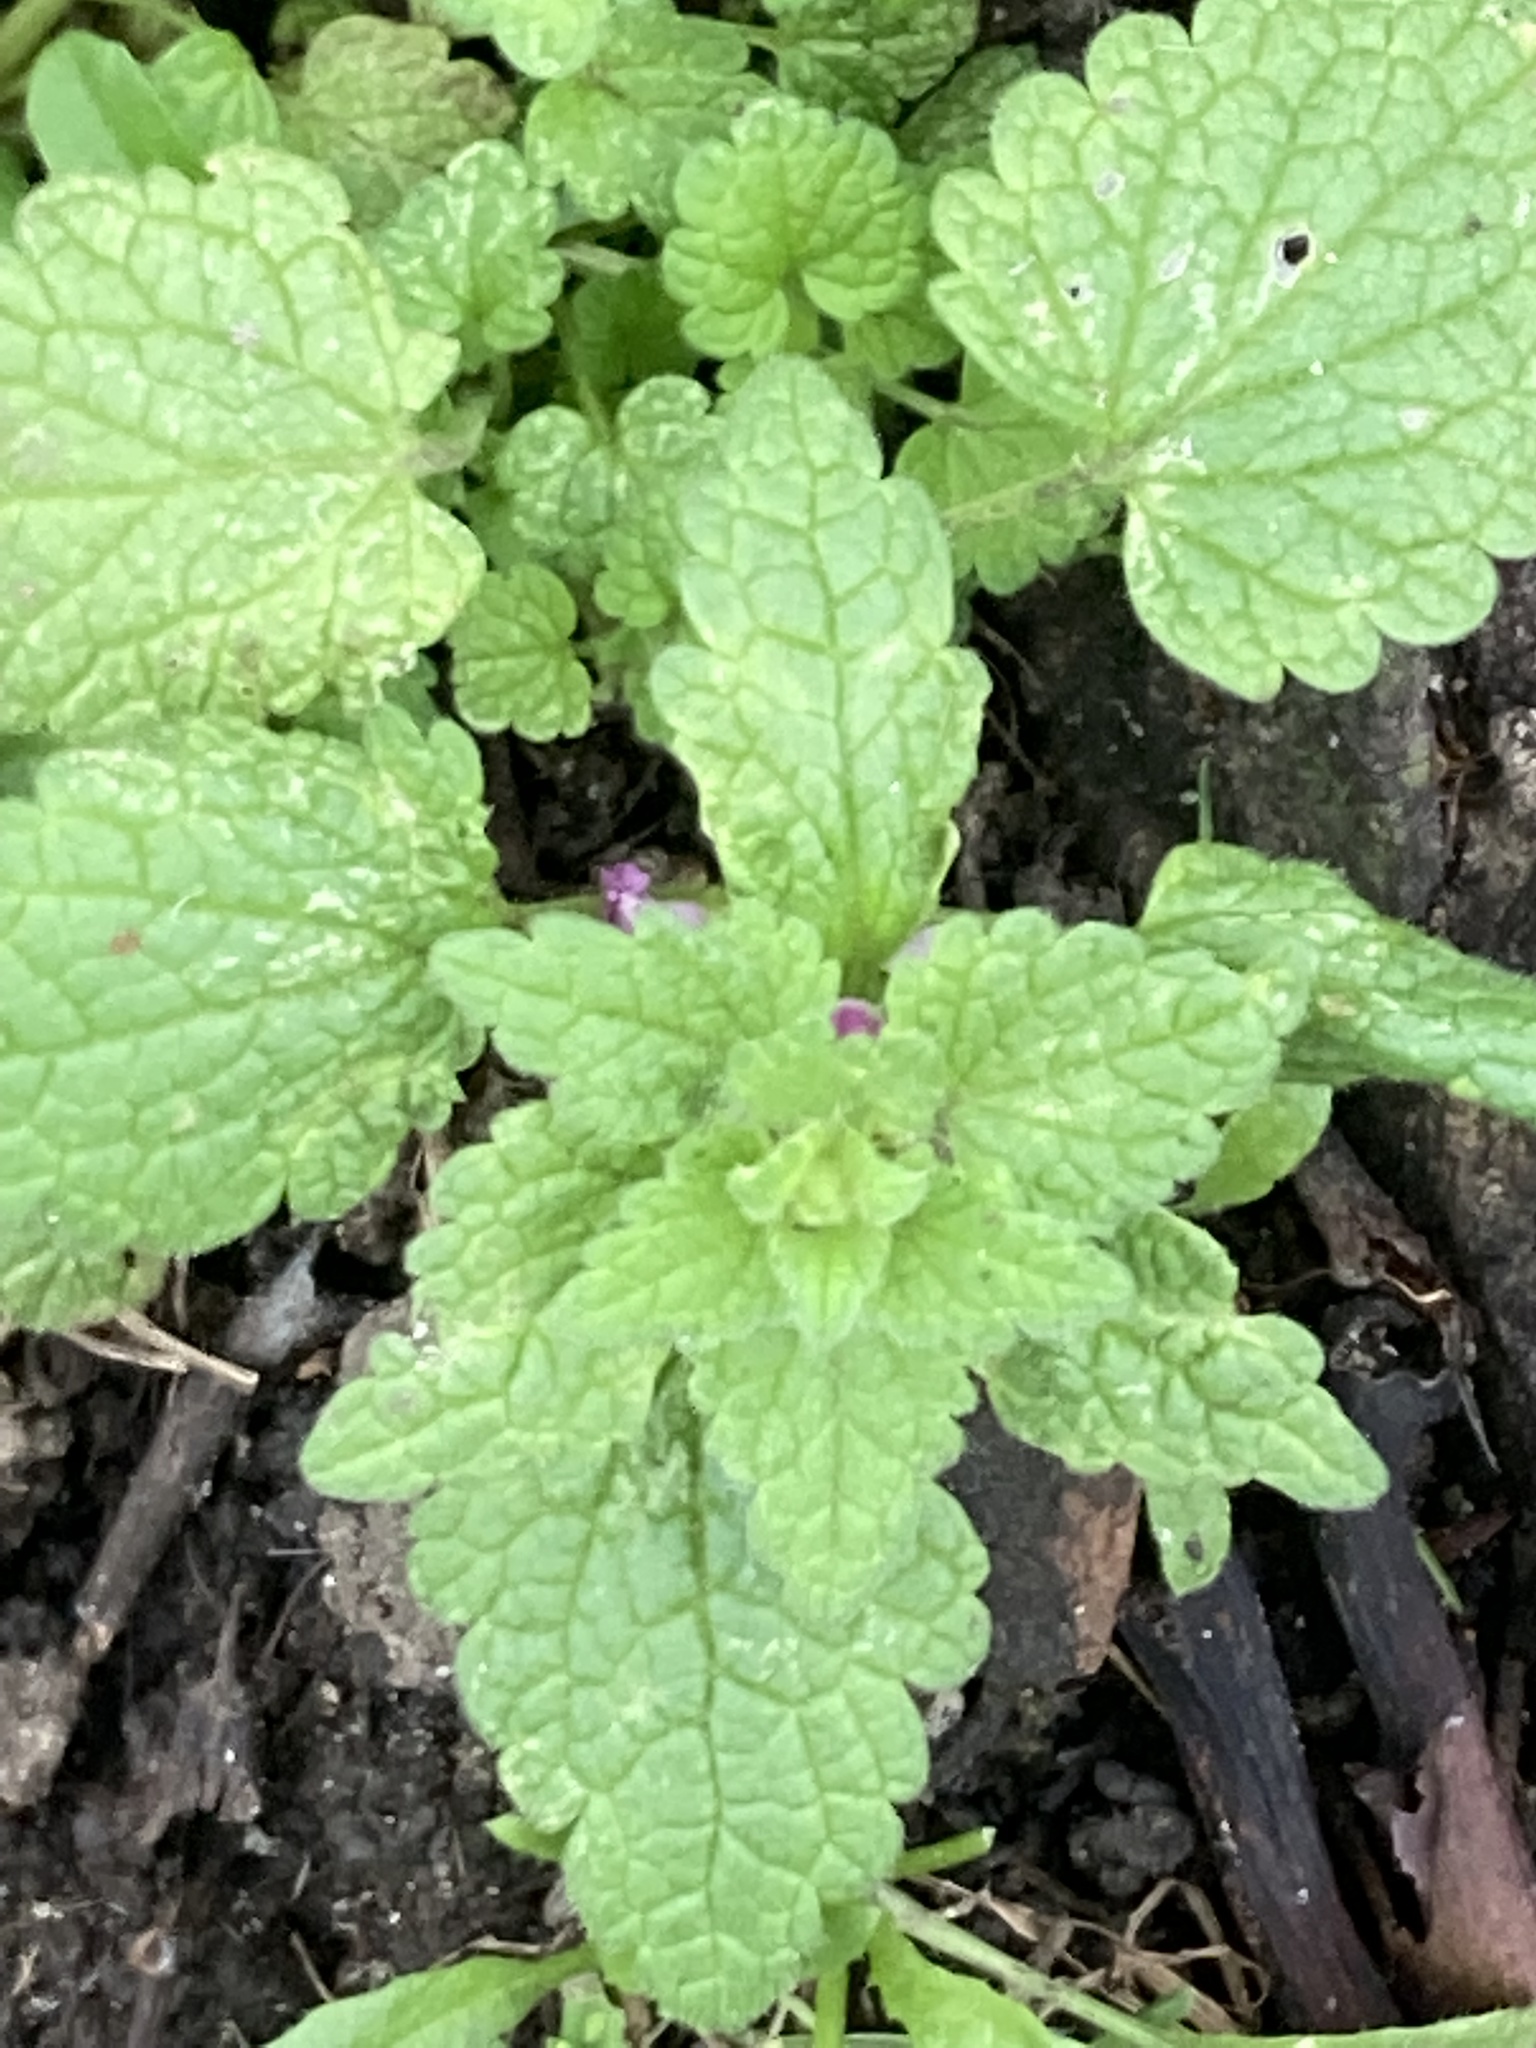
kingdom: Plantae
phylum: Tracheophyta
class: Magnoliopsida
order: Lamiales
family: Lamiaceae
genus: Lamium
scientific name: Lamium purpureum
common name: Red dead-nettle
